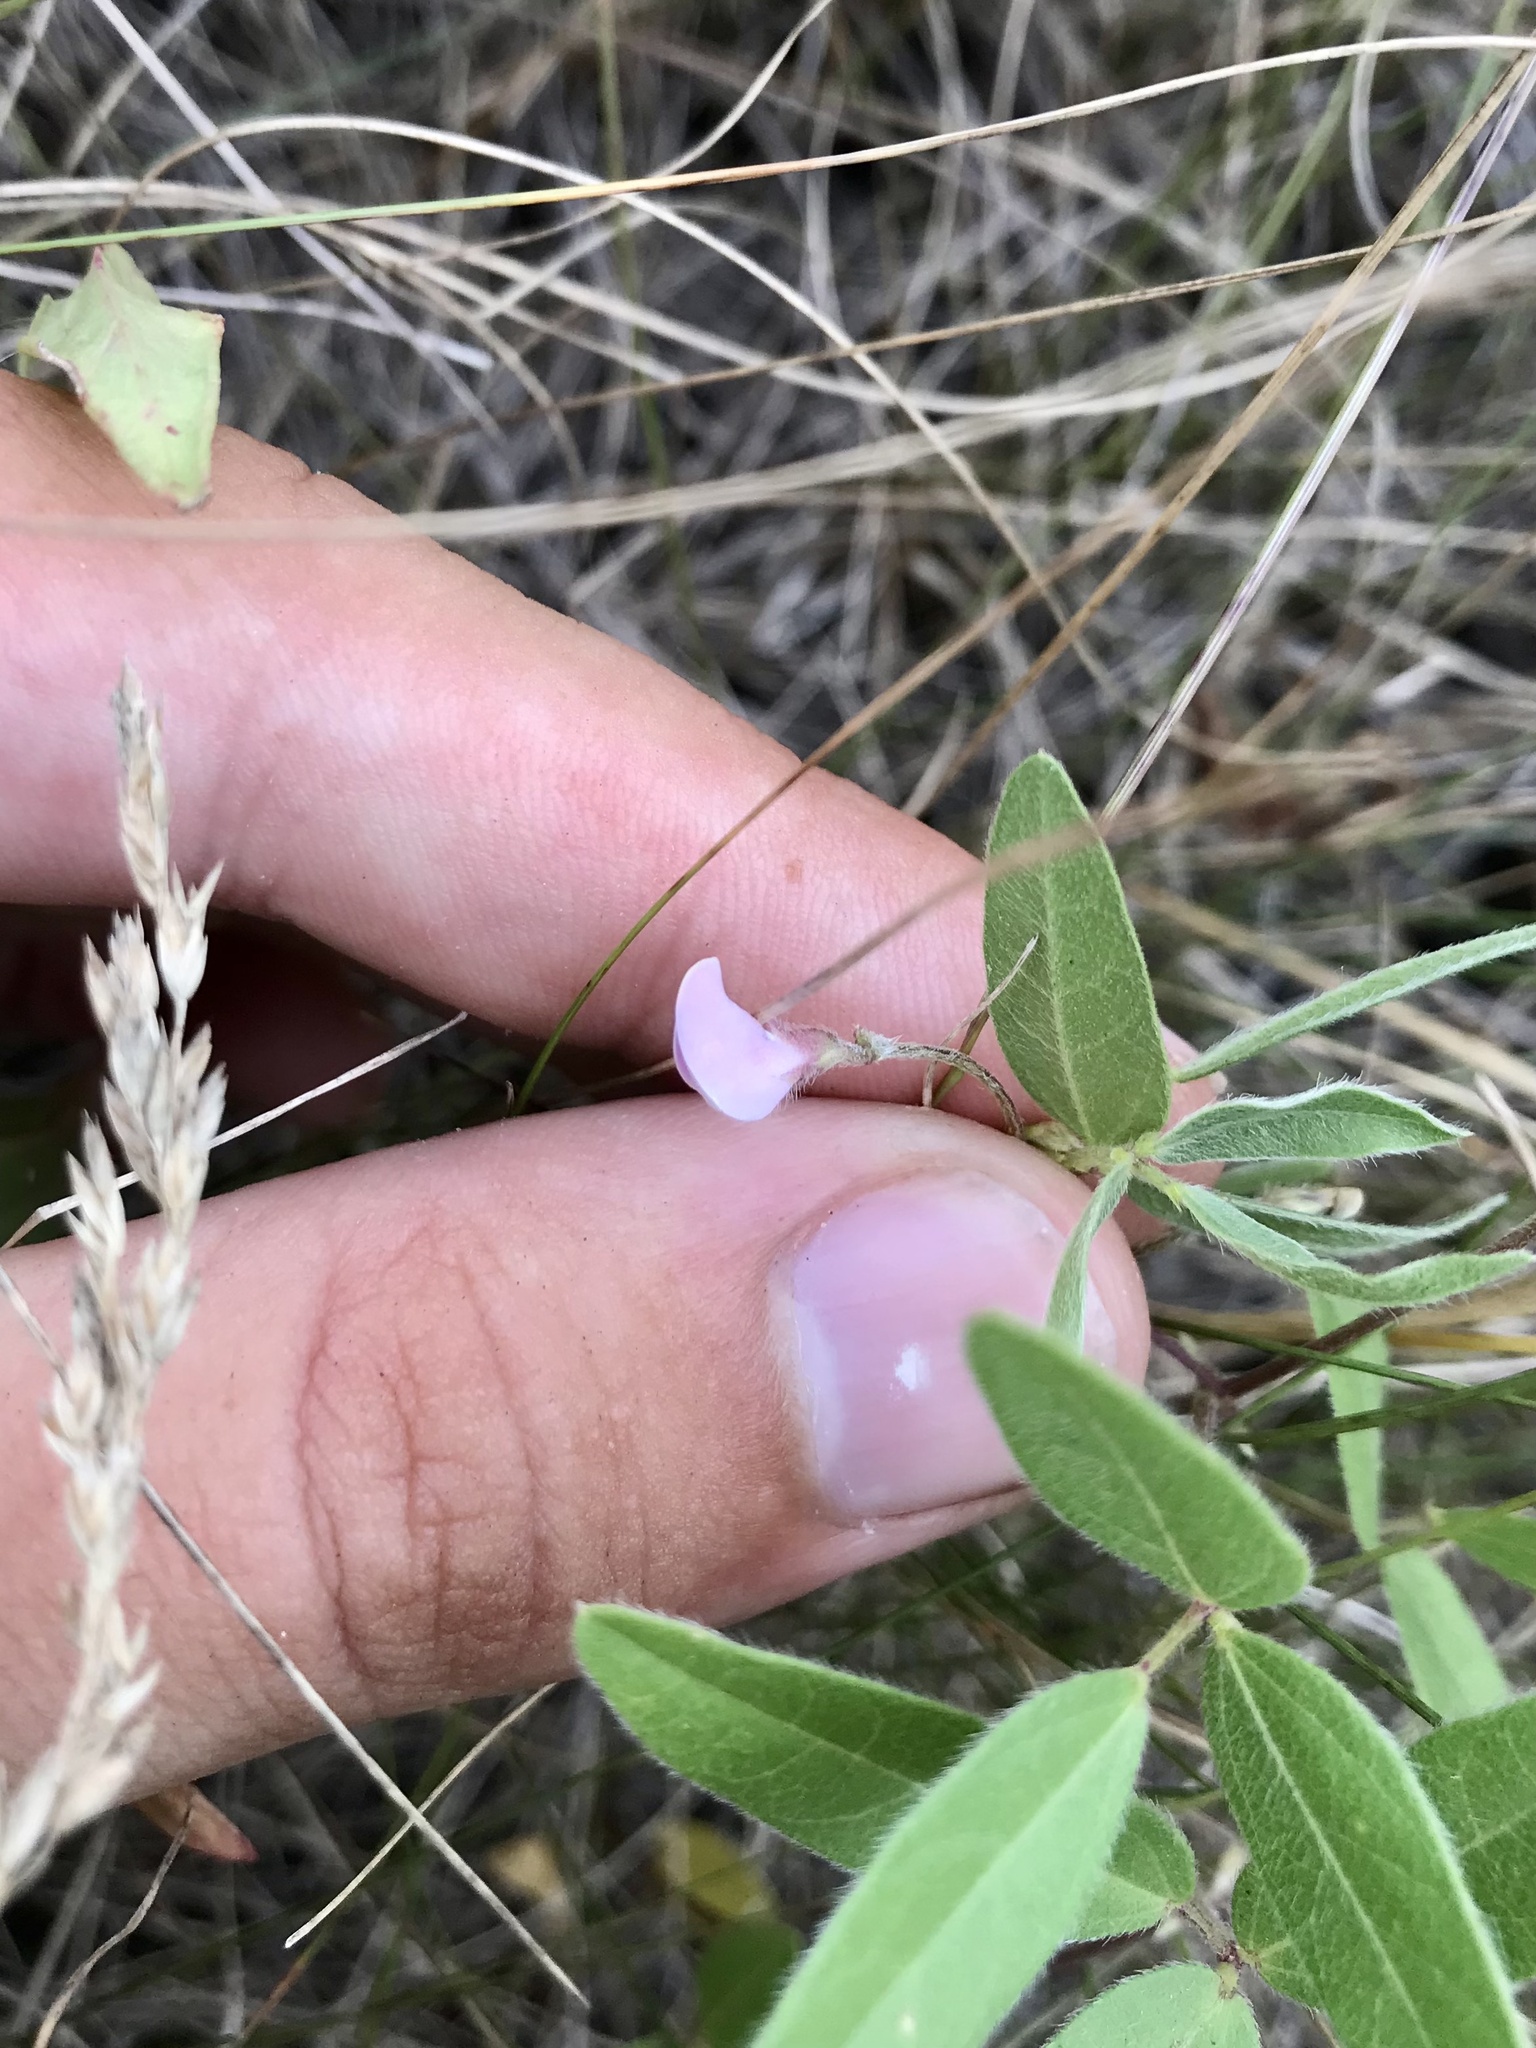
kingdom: Plantae
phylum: Tracheophyta
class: Magnoliopsida
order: Fabales
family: Fabaceae
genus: Strophostyles
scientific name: Strophostyles leiosperma
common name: Smooth-seed wild bean
